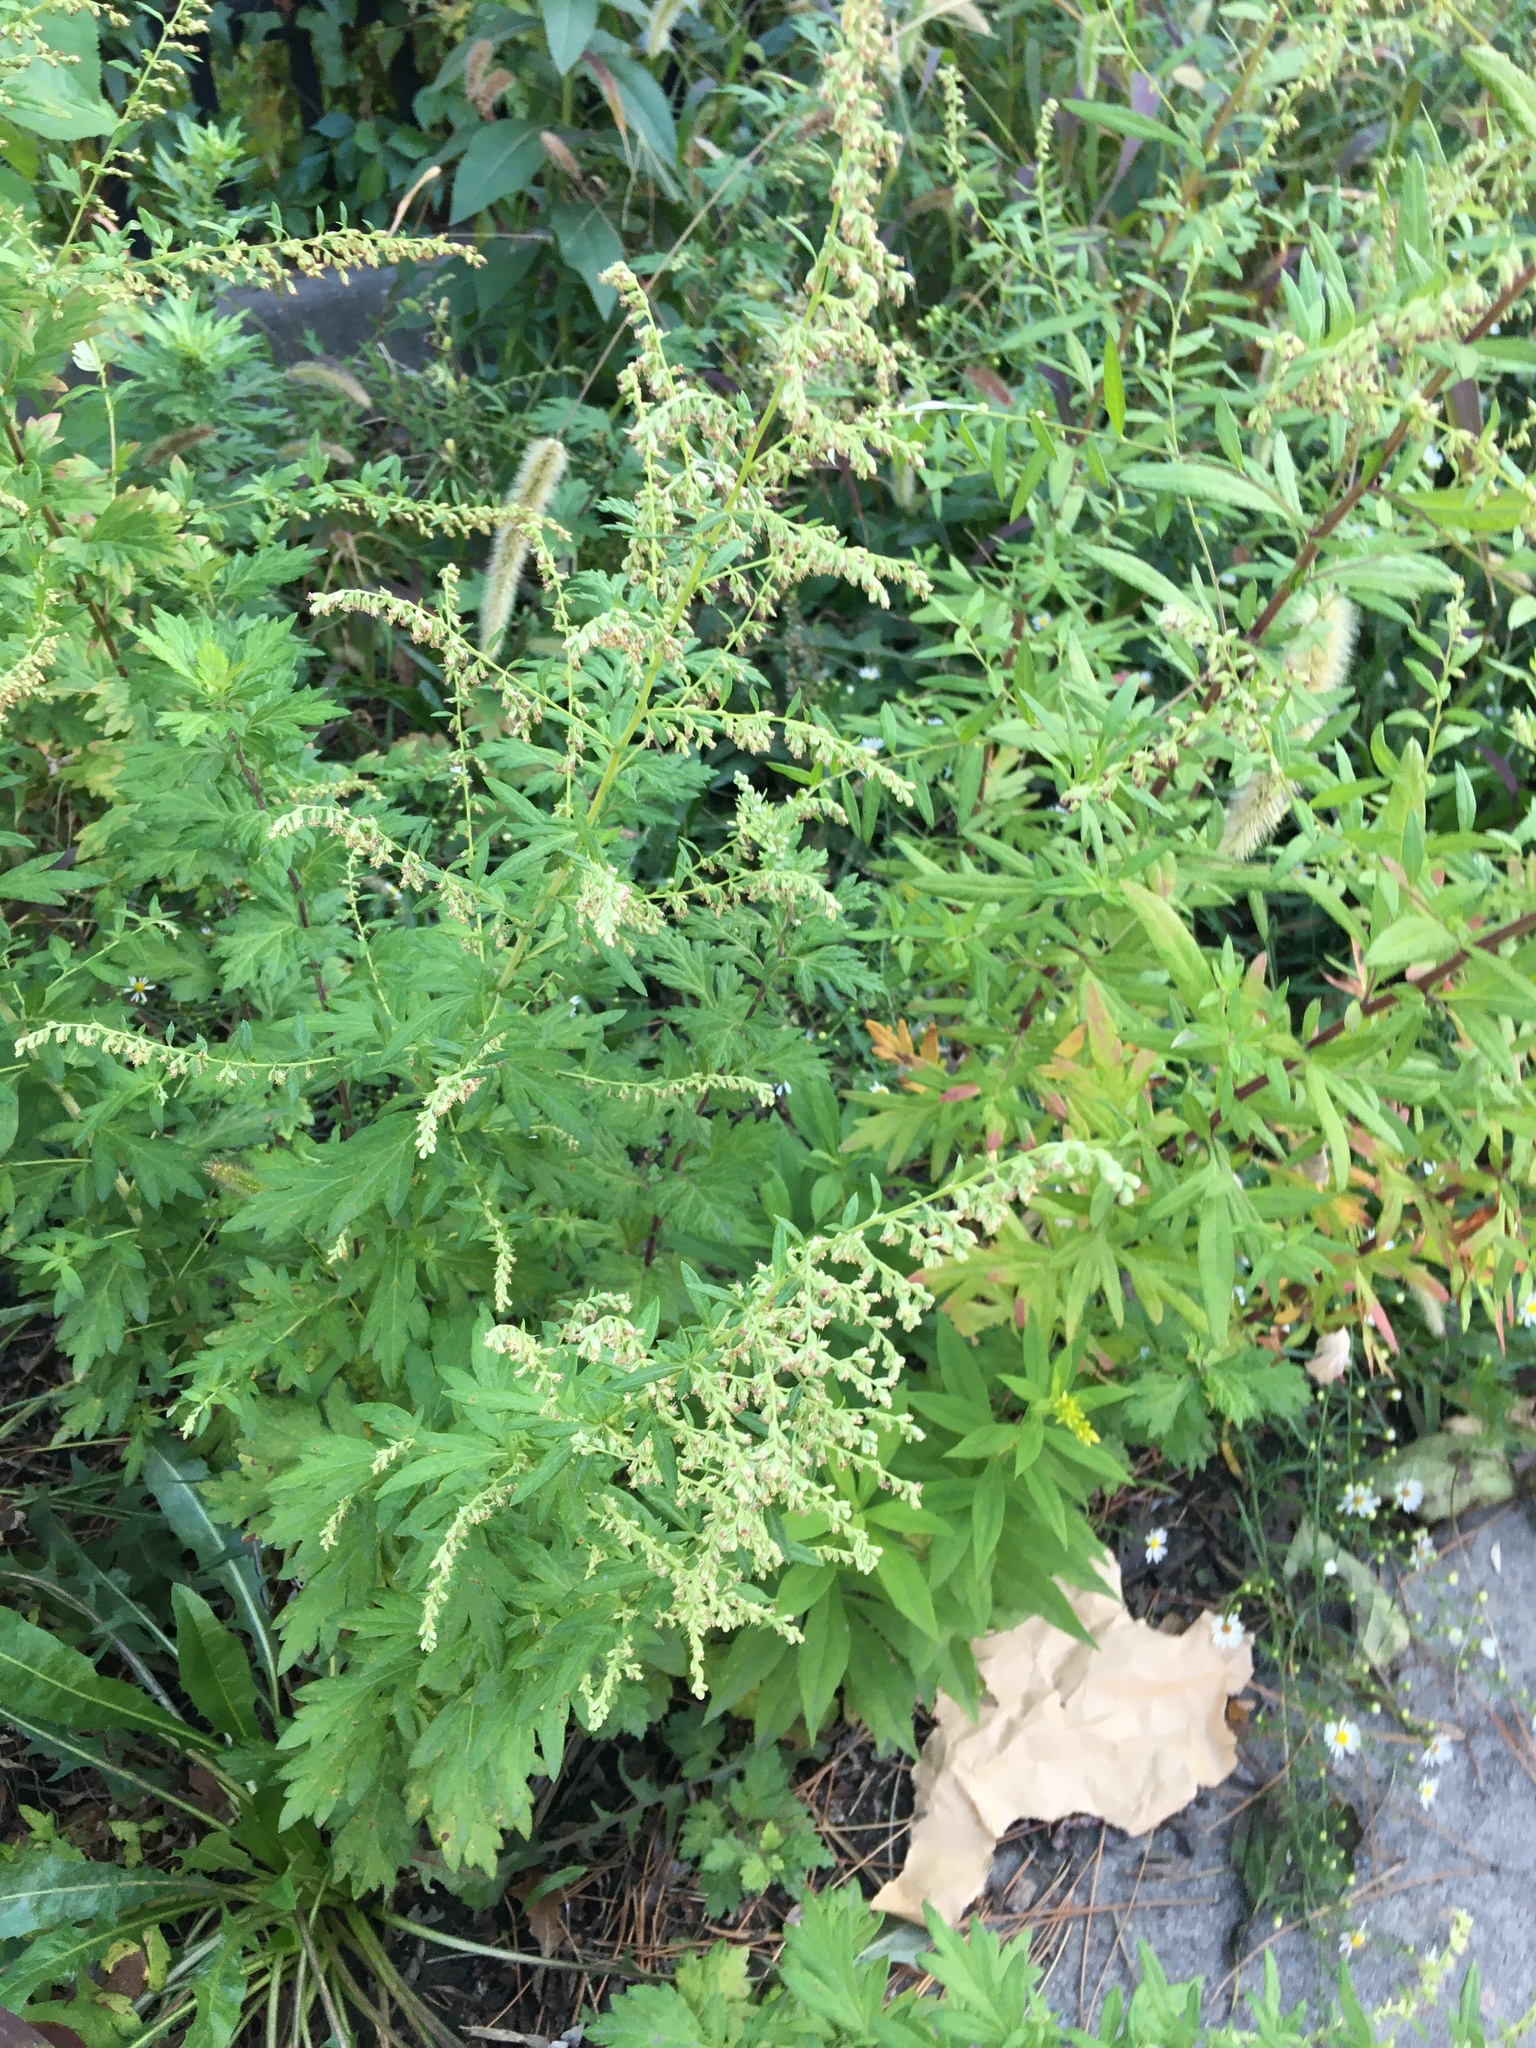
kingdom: Plantae
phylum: Tracheophyta
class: Magnoliopsida
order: Asterales
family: Asteraceae
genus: Artemisia
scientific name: Artemisia vulgaris
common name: Mugwort
